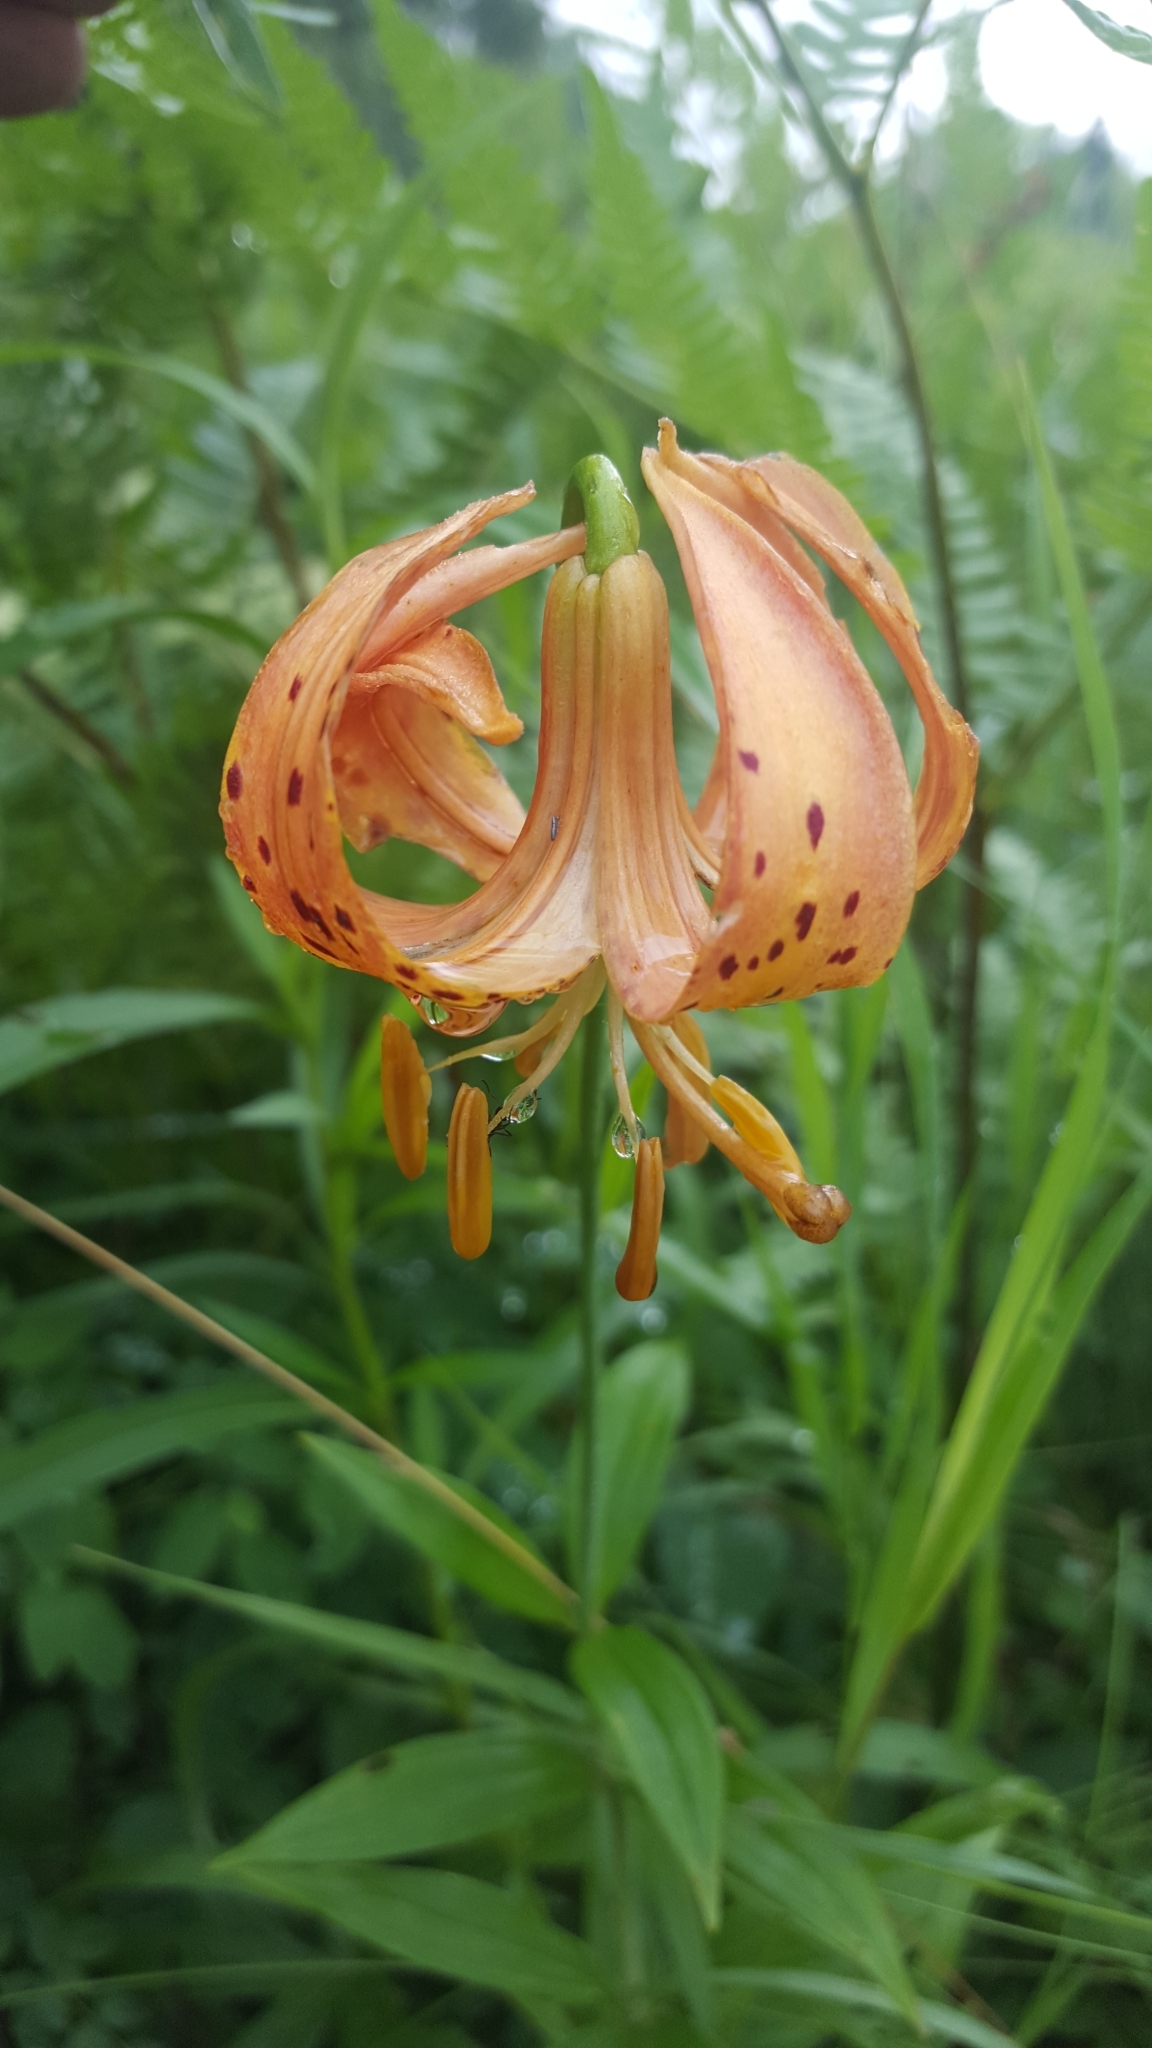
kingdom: Plantae
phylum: Tracheophyta
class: Liliopsida
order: Liliales
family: Liliaceae
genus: Lilium
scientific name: Lilium michiganense
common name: Michigan lily
